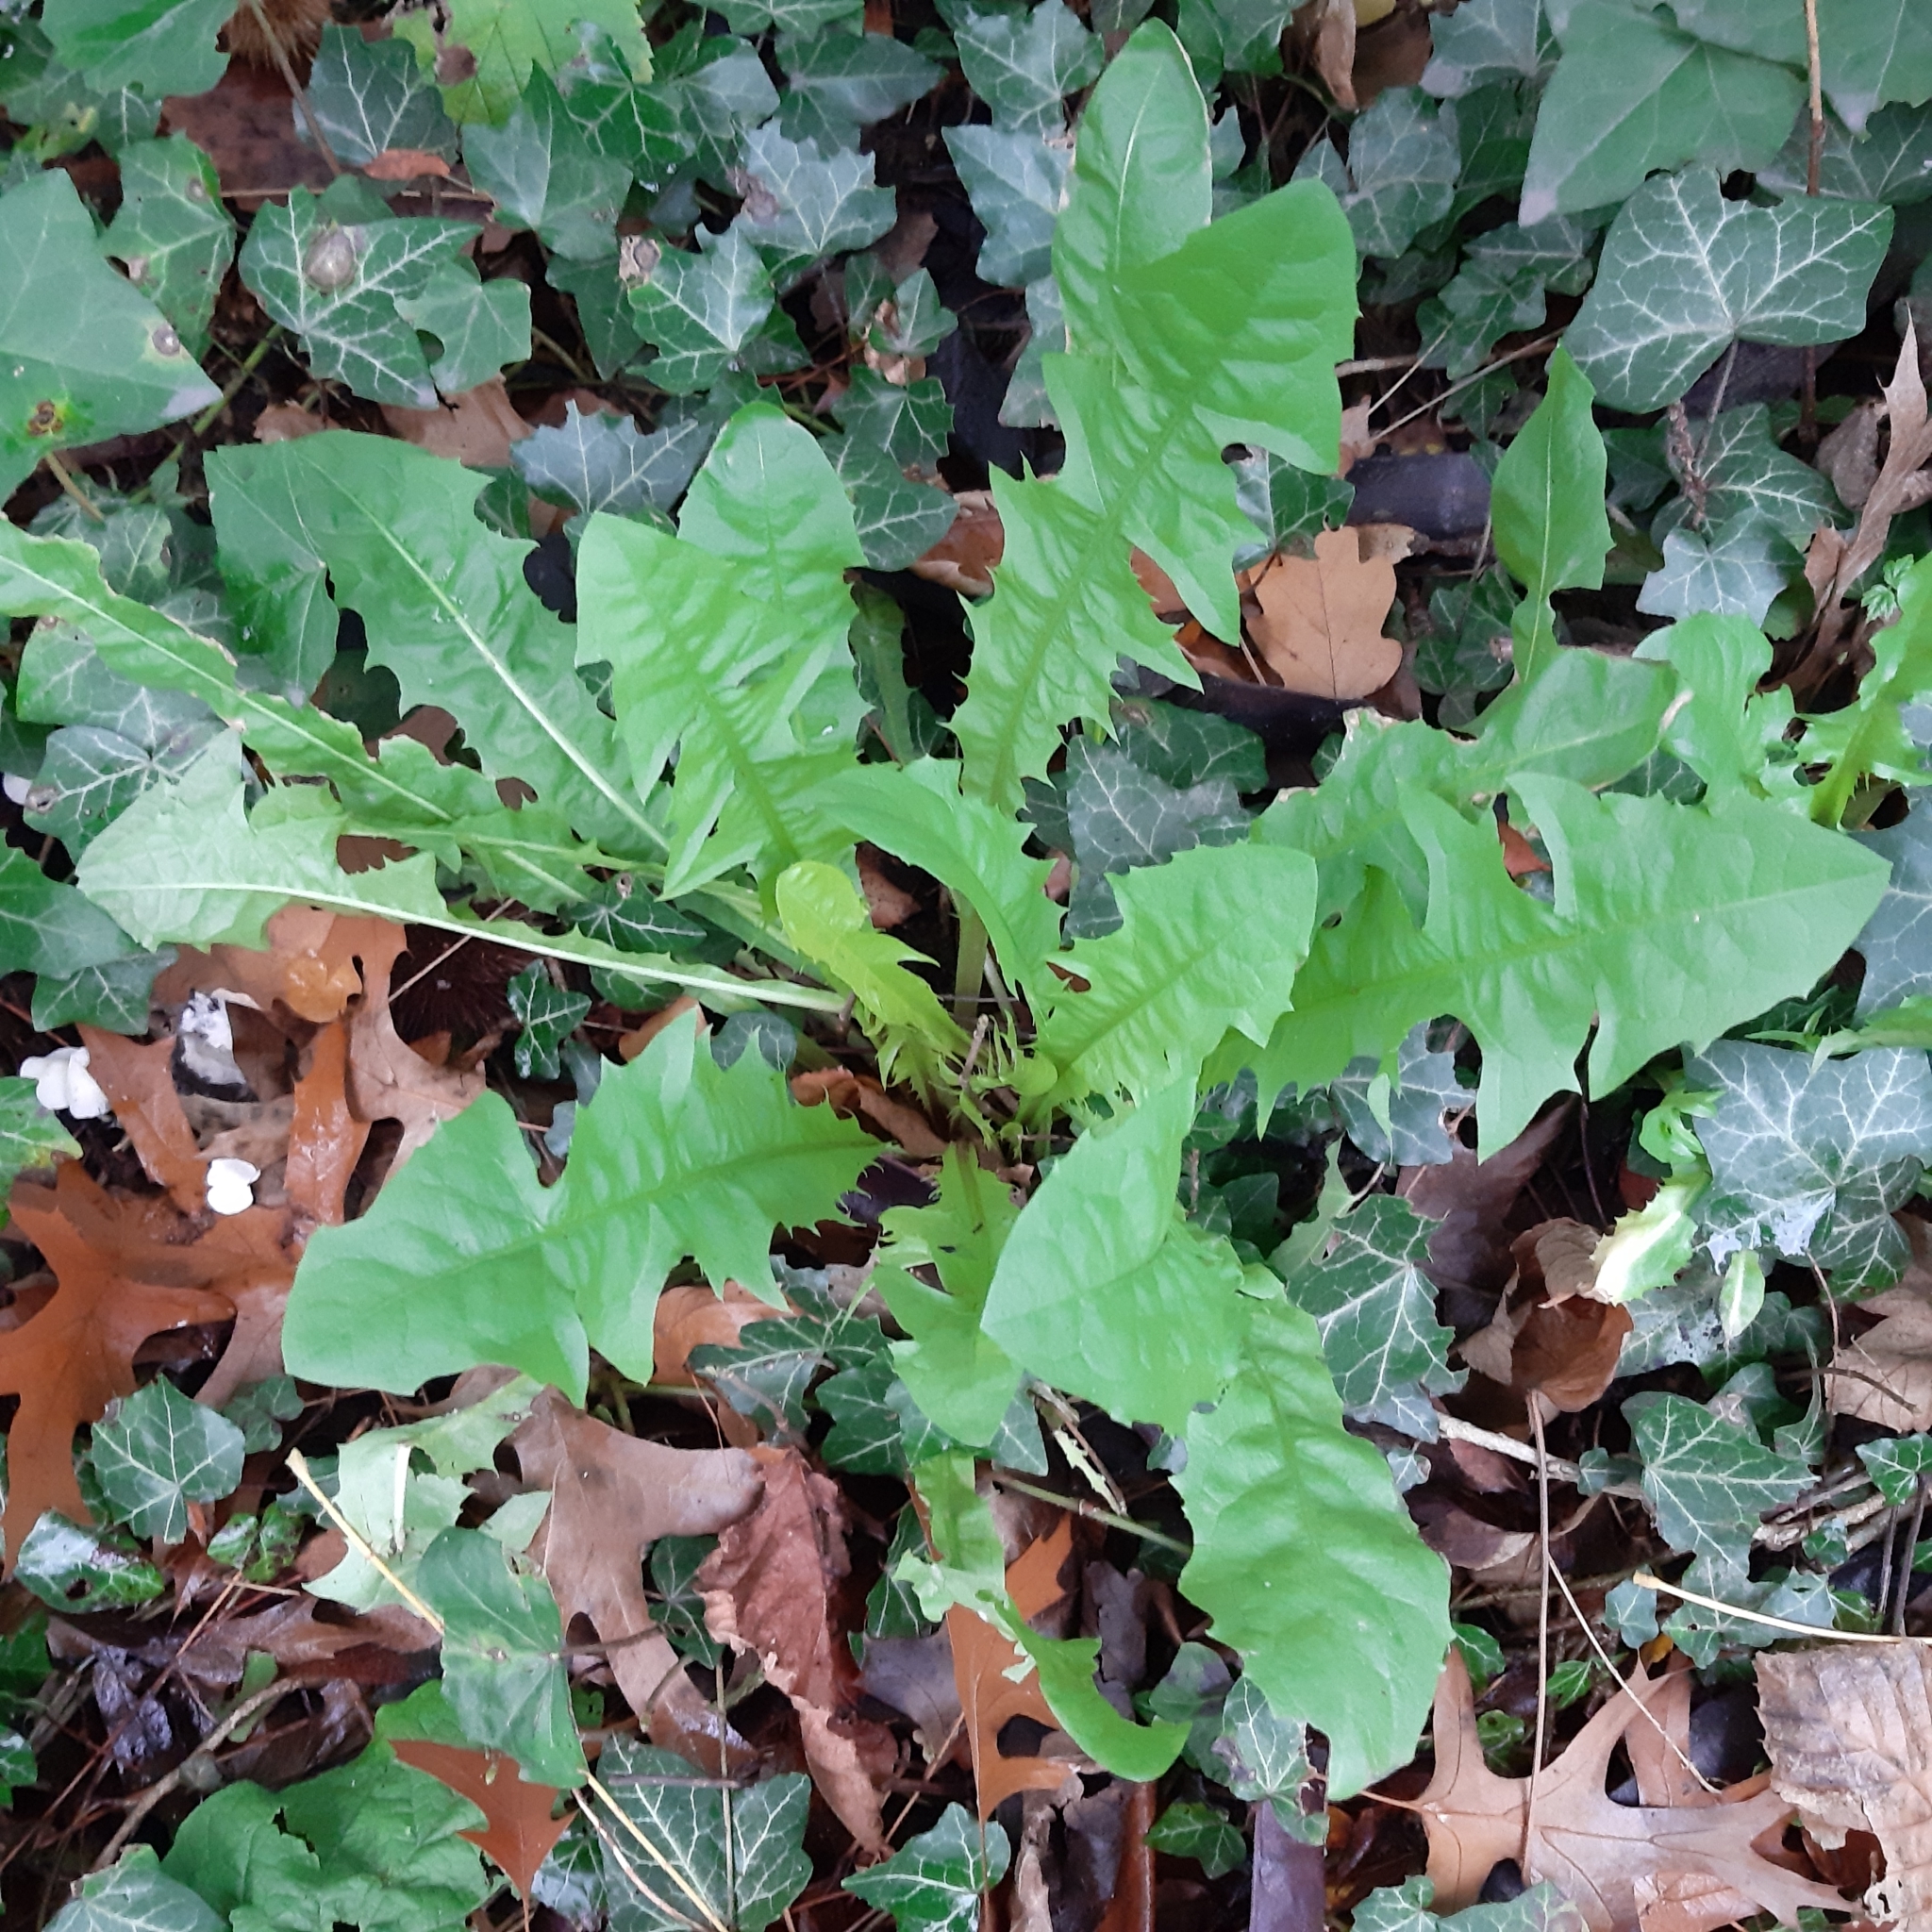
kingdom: Plantae
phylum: Tracheophyta
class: Magnoliopsida
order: Asterales
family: Asteraceae
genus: Taraxacum
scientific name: Taraxacum officinale
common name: Common dandelion
